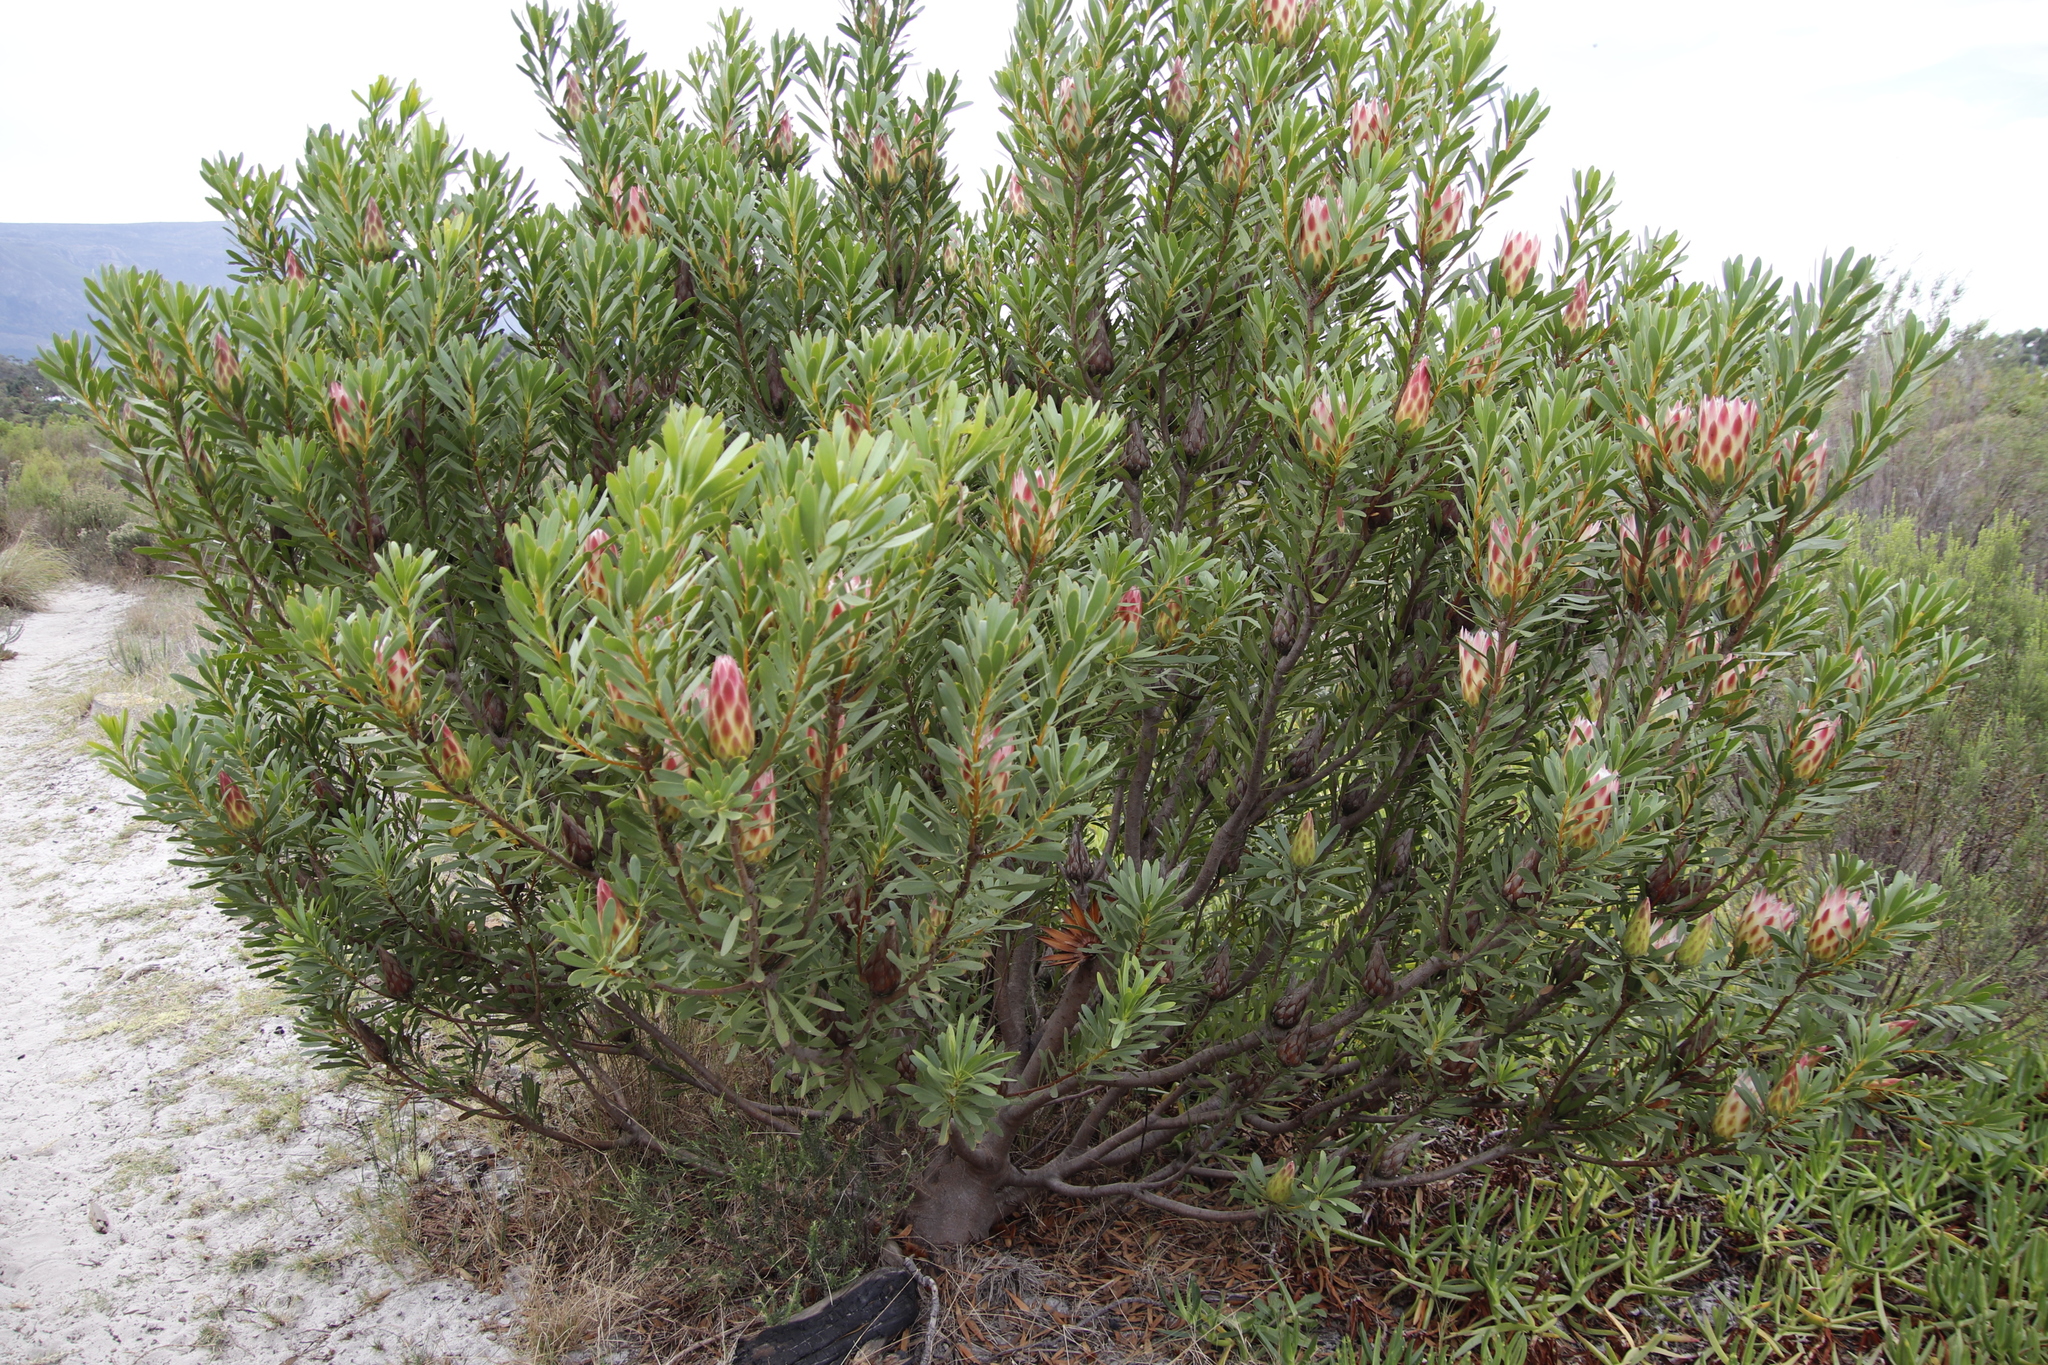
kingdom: Plantae
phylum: Tracheophyta
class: Magnoliopsida
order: Proteales
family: Proteaceae
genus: Protea
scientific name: Protea repens
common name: Sugarbush
